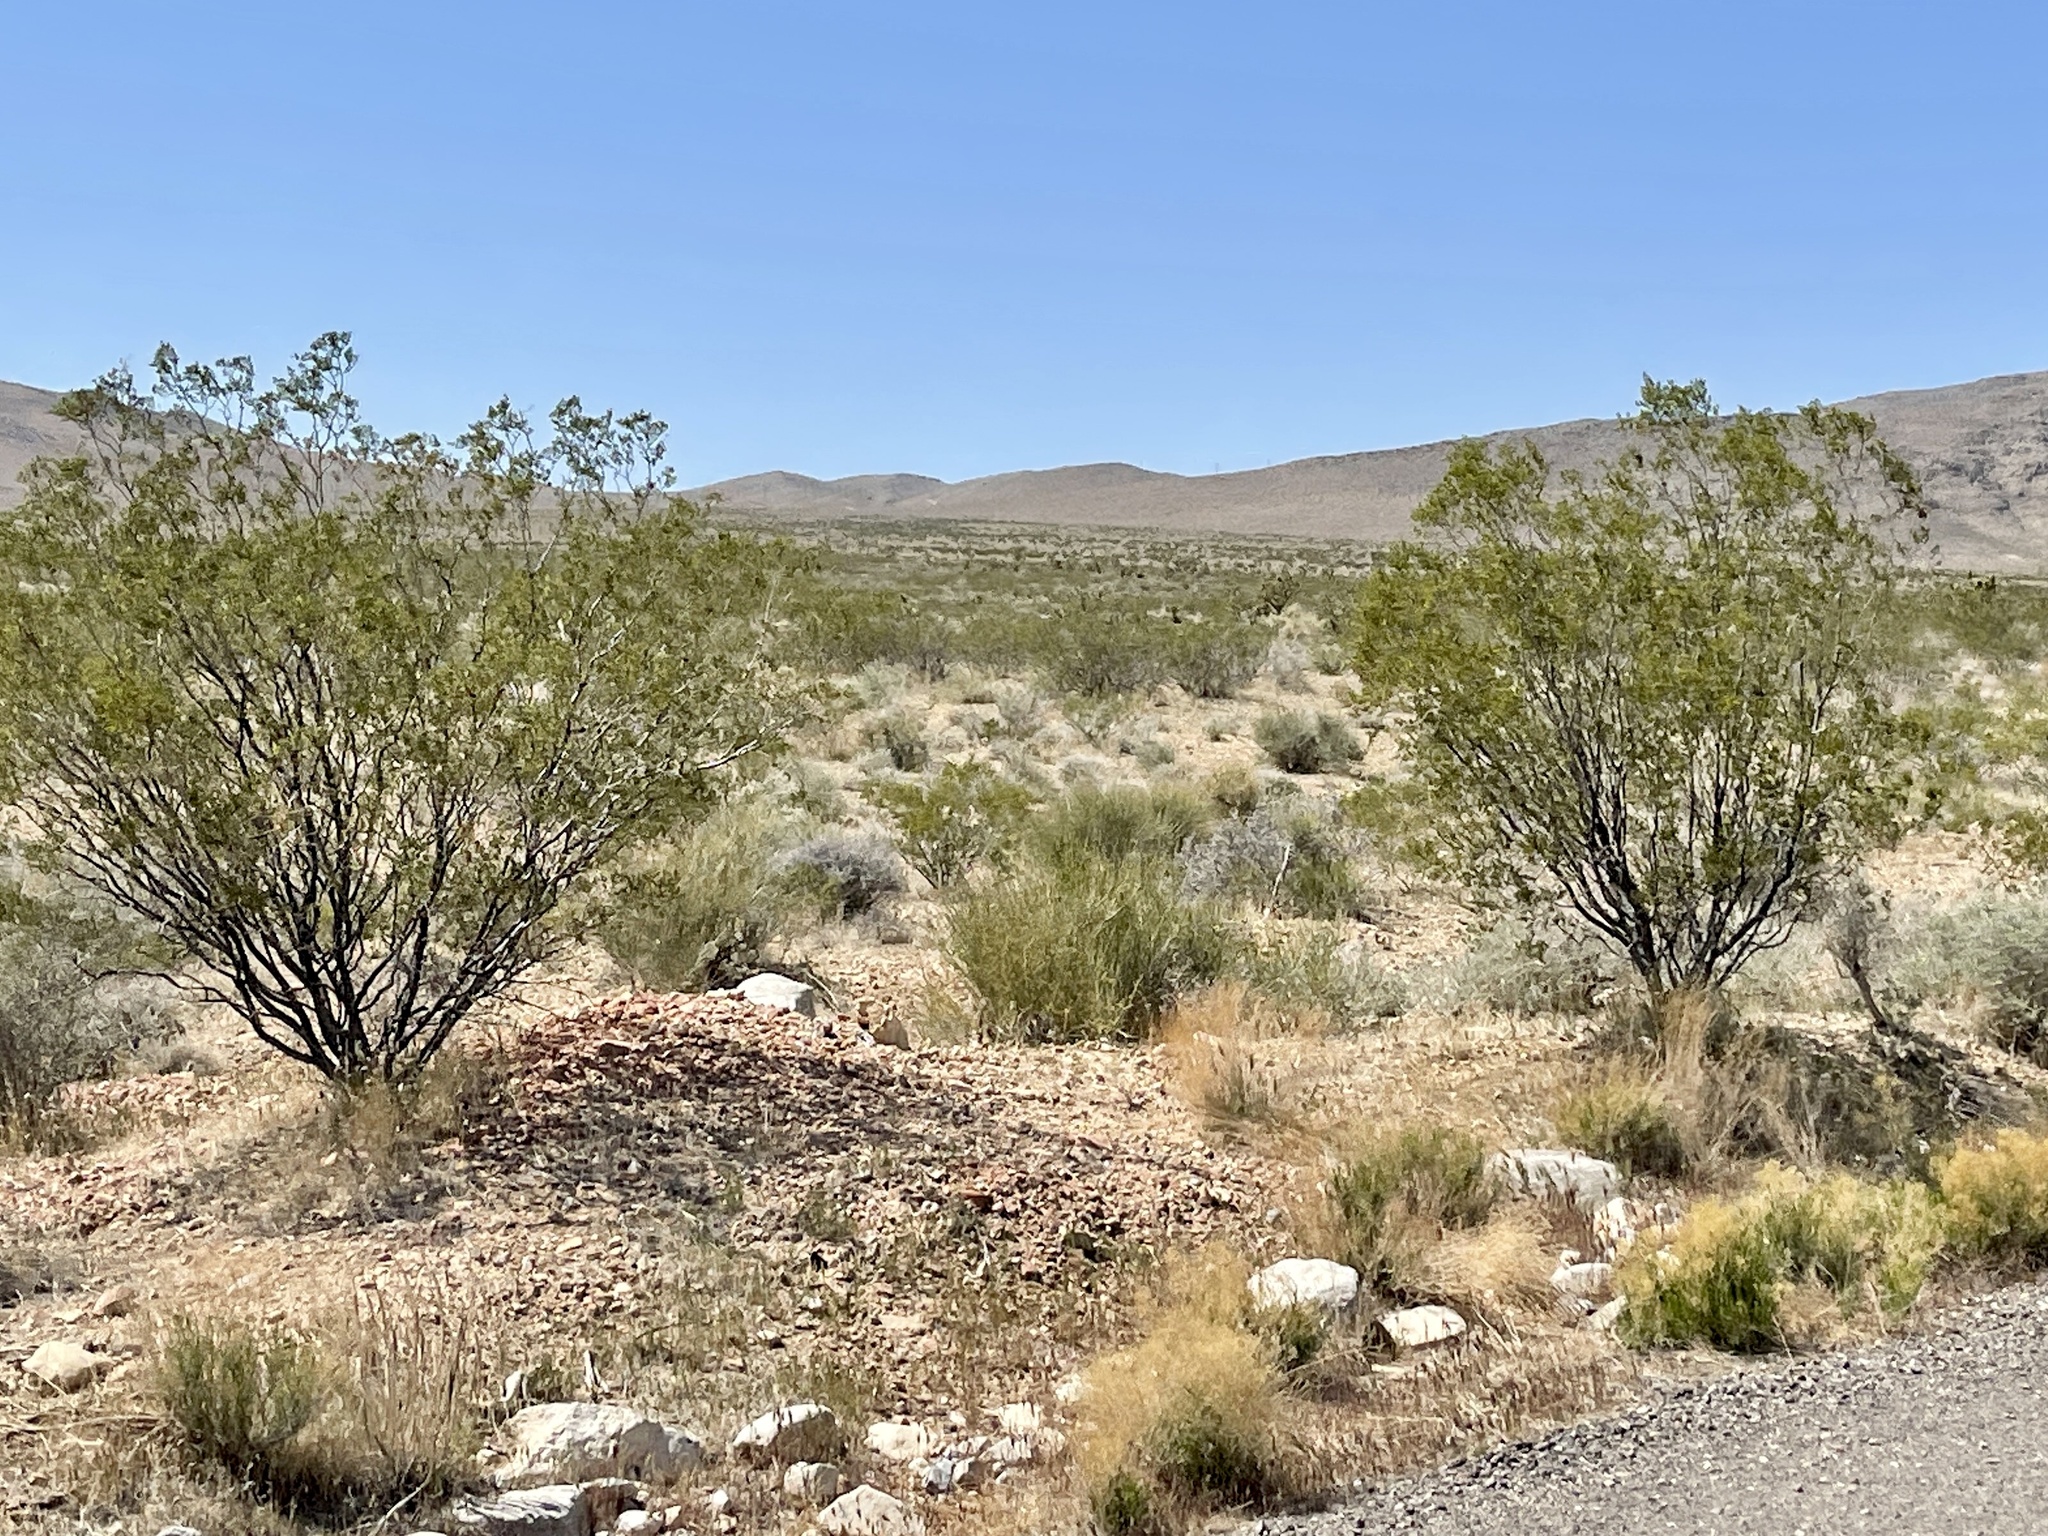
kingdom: Plantae
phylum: Tracheophyta
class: Magnoliopsida
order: Zygophyllales
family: Zygophyllaceae
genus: Larrea
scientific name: Larrea tridentata
